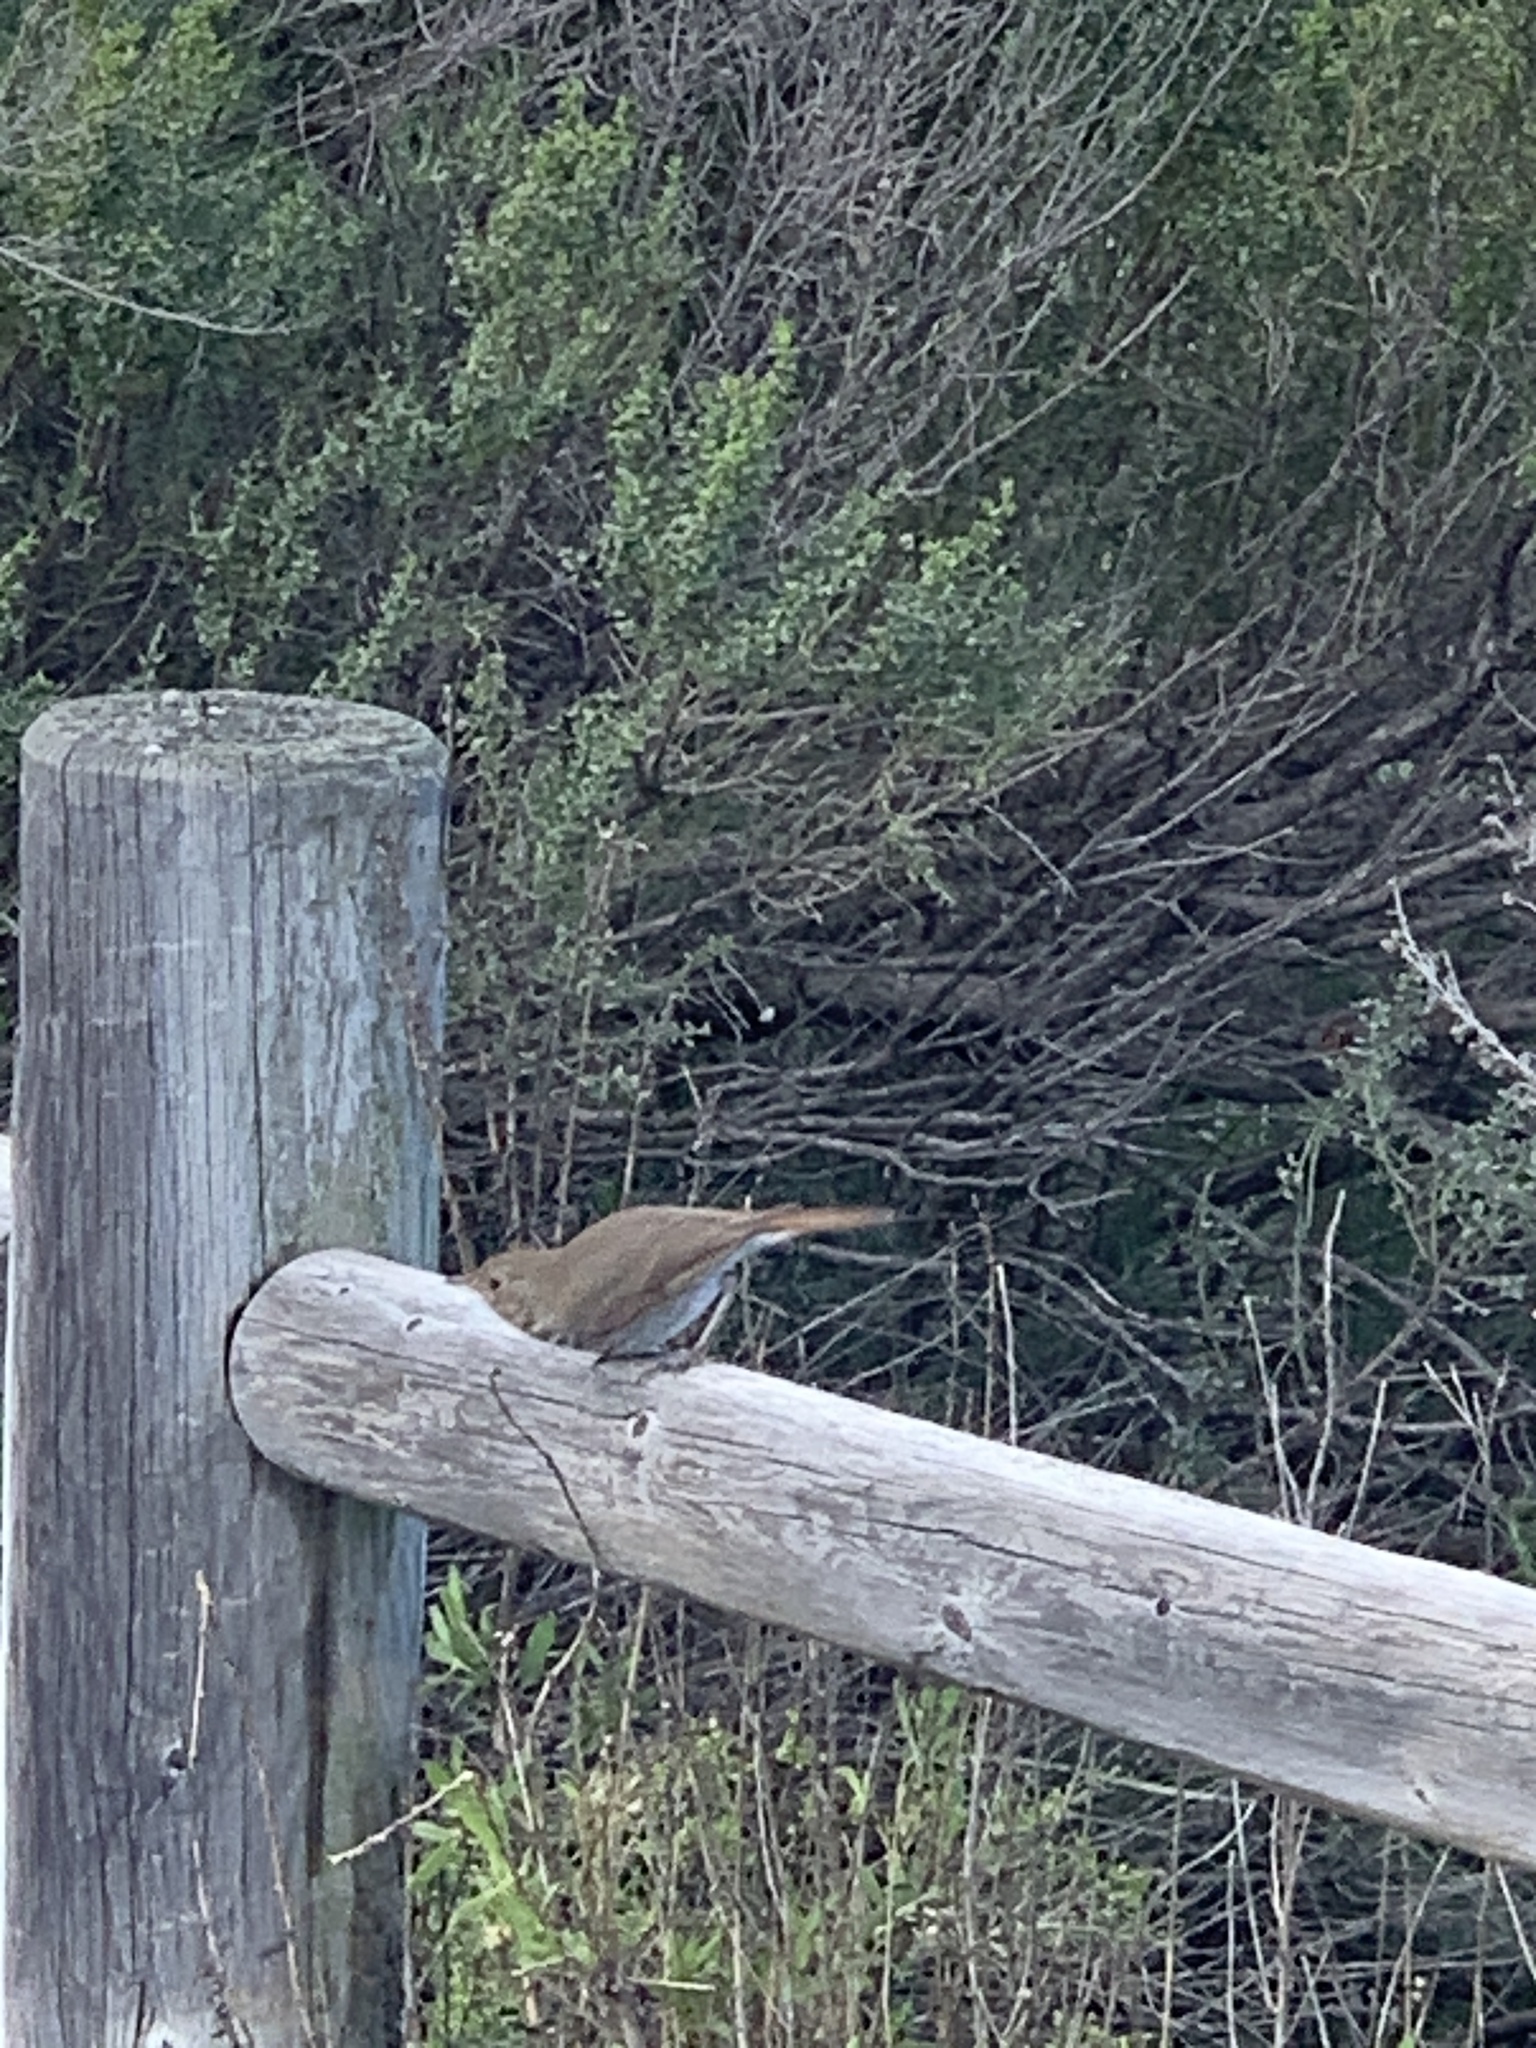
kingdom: Animalia
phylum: Chordata
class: Aves
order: Passeriformes
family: Turdidae
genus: Catharus
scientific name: Catharus guttatus
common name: Hermit thrush
